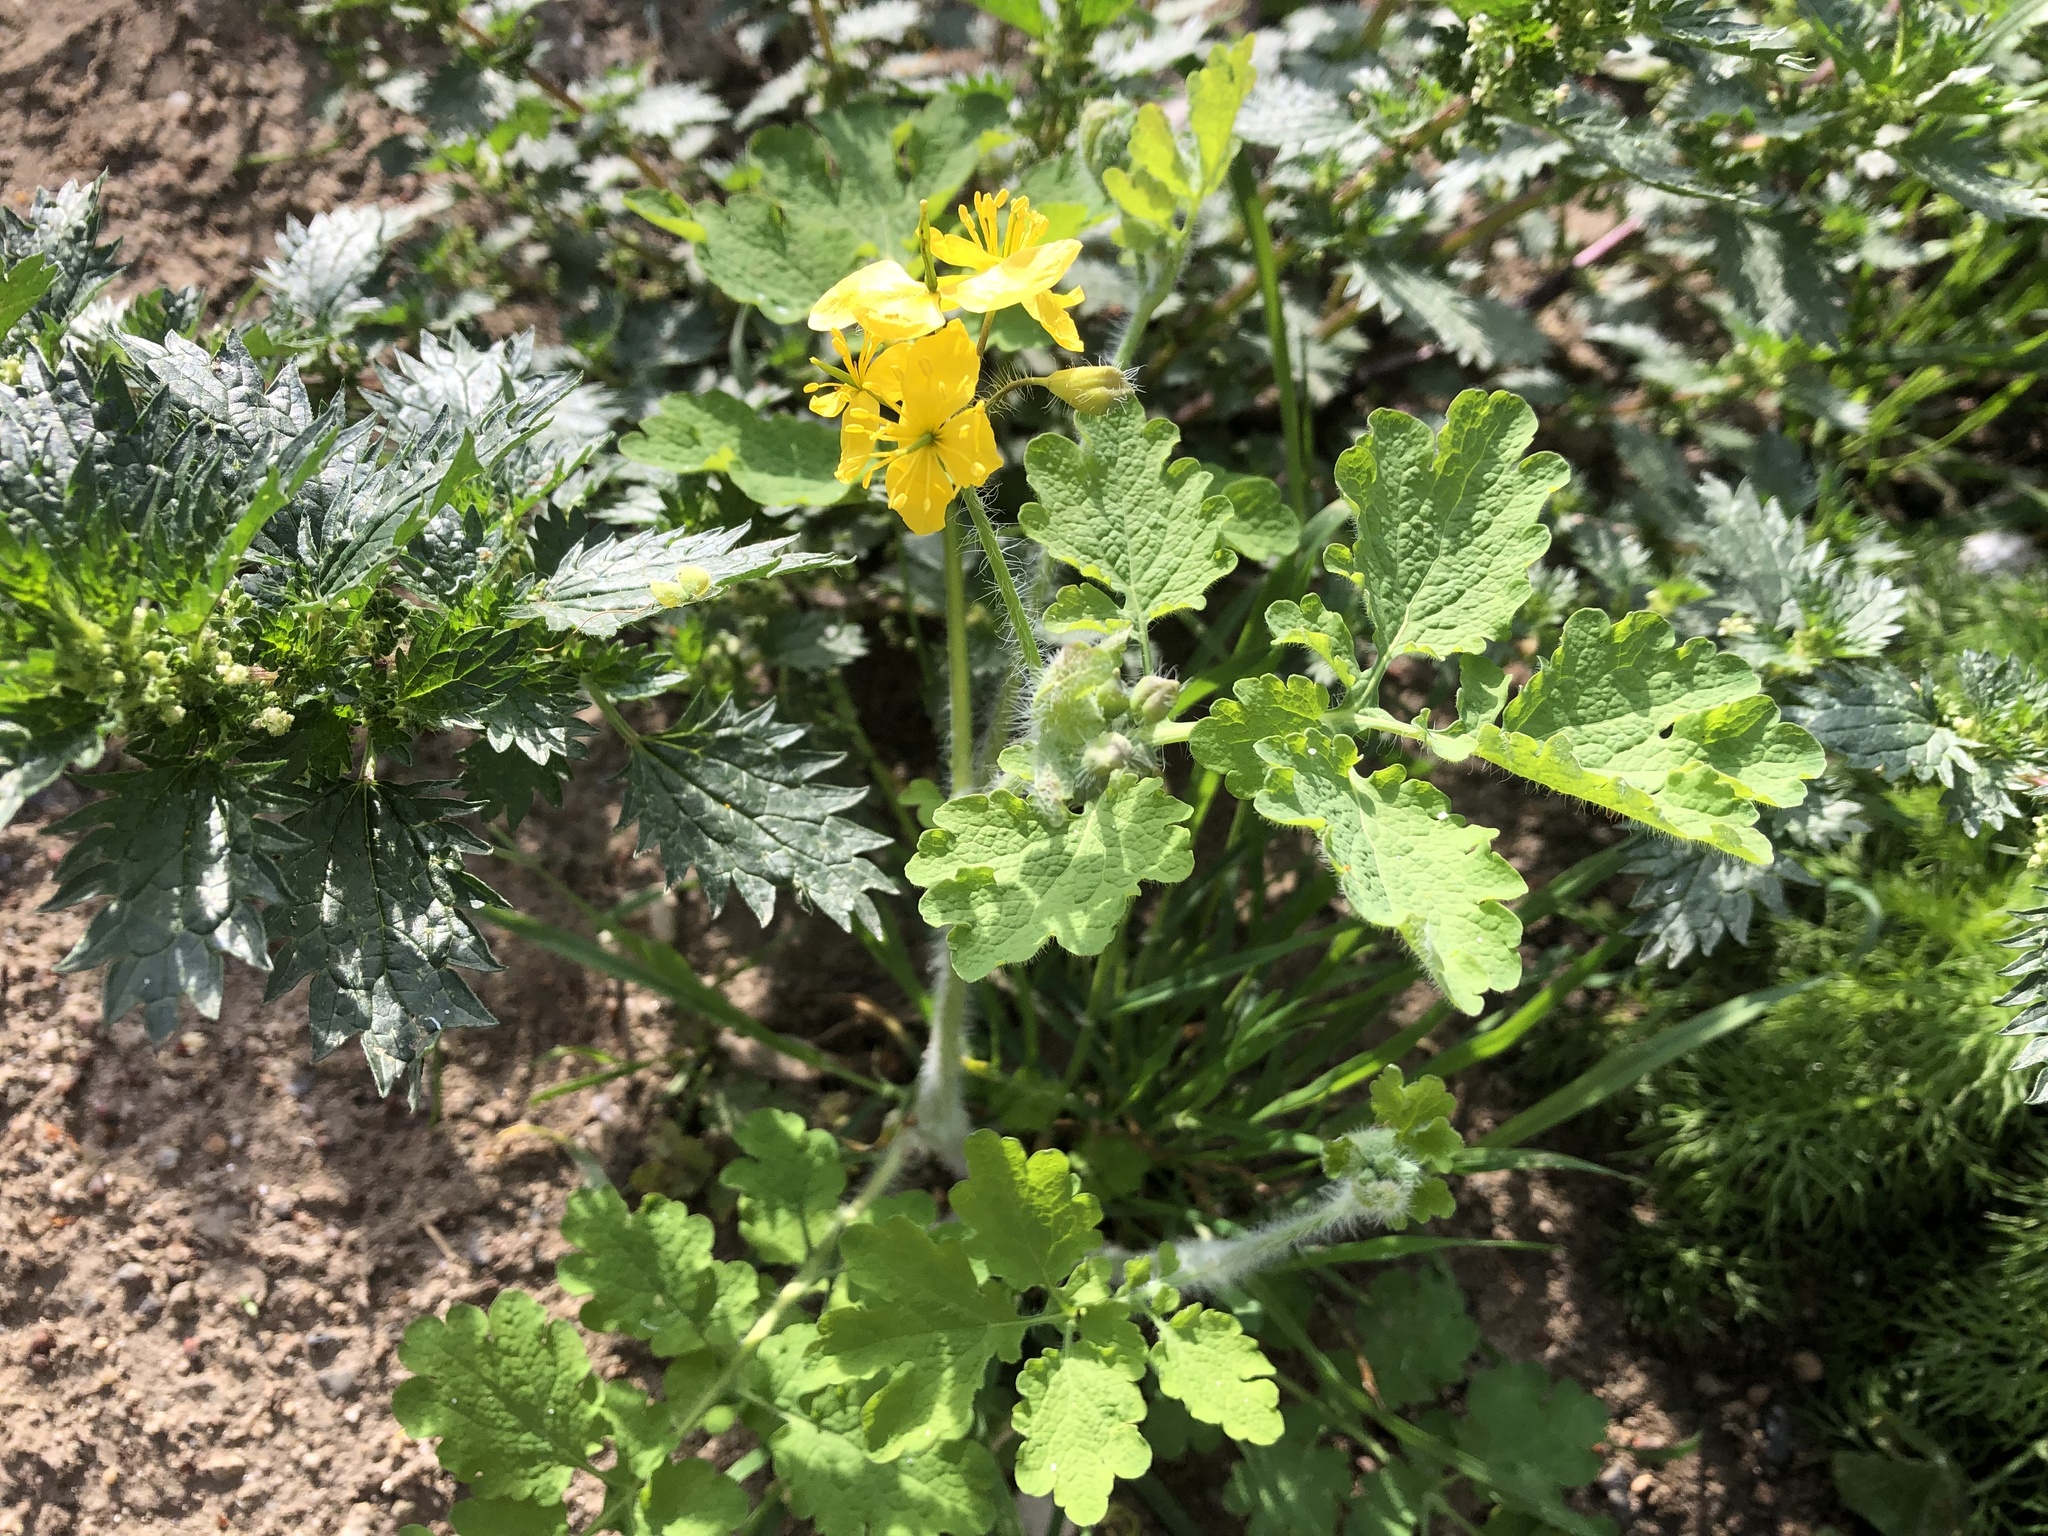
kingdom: Plantae
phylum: Tracheophyta
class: Magnoliopsida
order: Ranunculales
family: Papaveraceae
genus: Chelidonium
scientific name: Chelidonium majus
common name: Greater celandine
